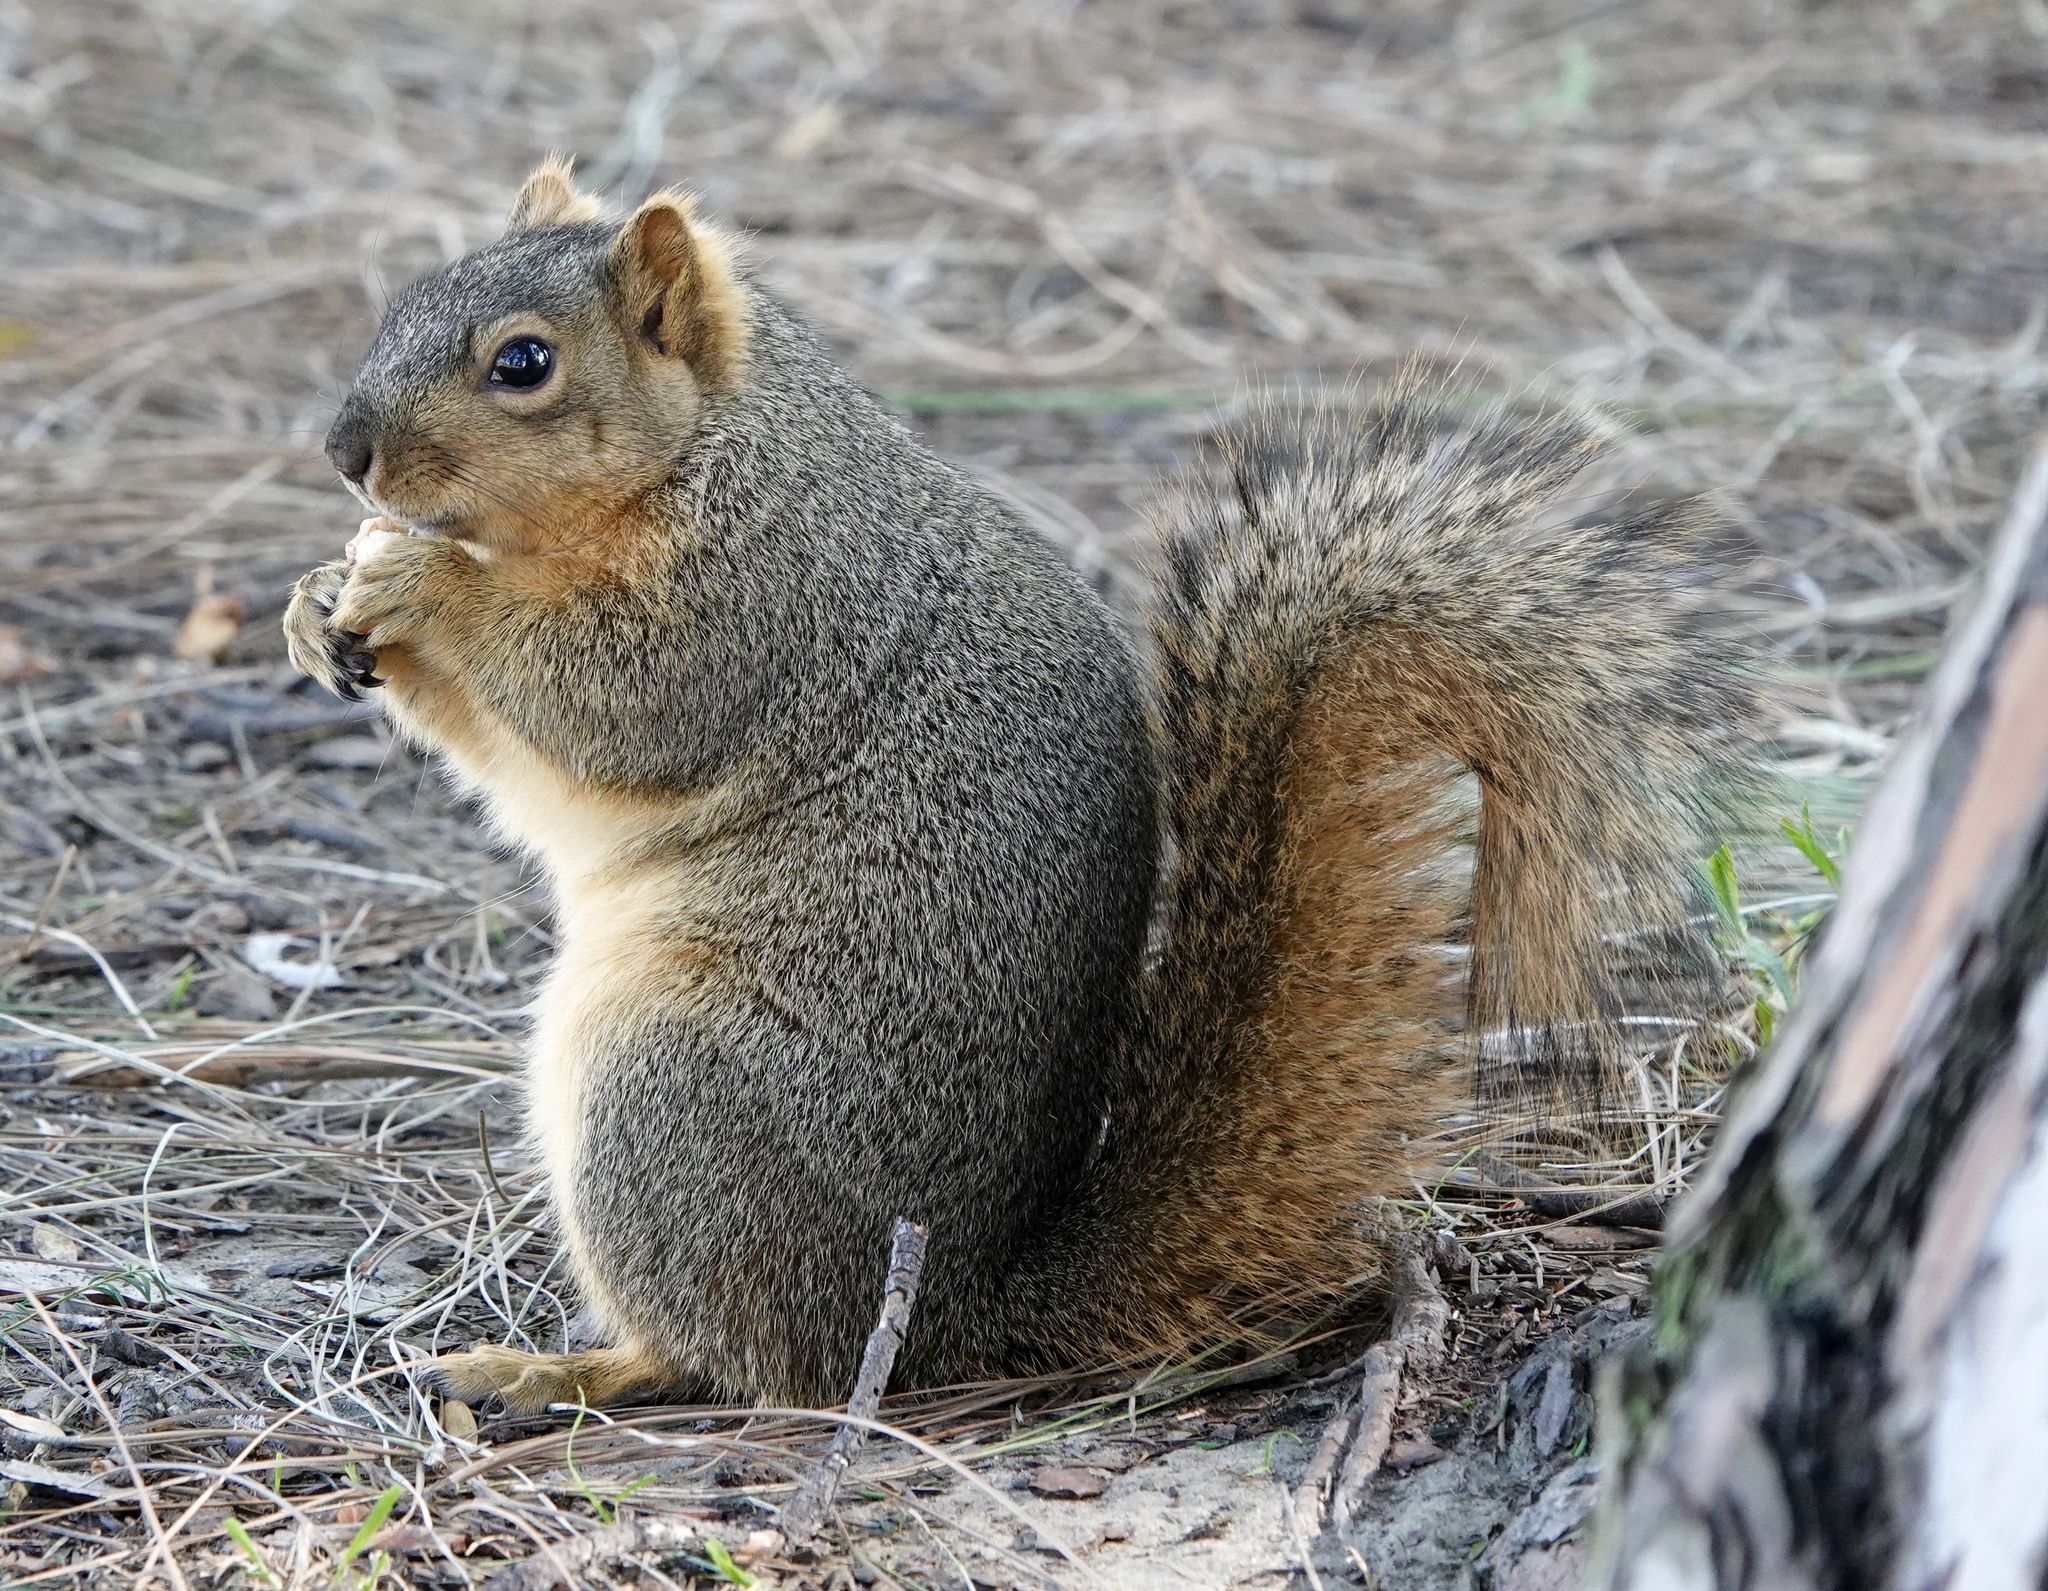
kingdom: Animalia
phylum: Chordata
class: Mammalia
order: Rodentia
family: Sciuridae
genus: Sciurus
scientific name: Sciurus niger
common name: Fox squirrel
